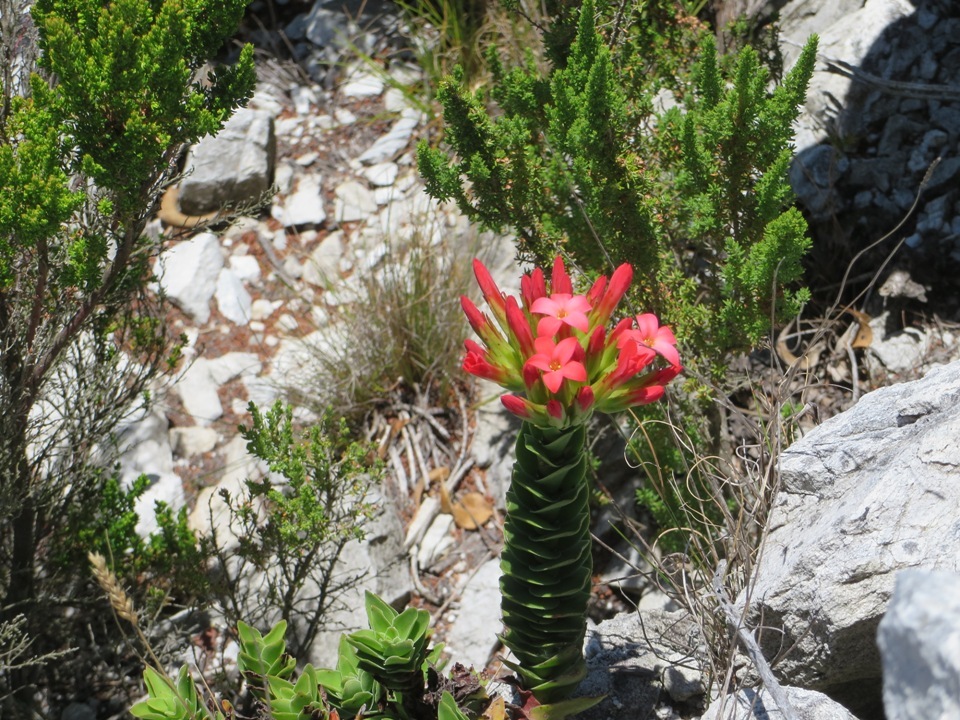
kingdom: Plantae
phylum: Tracheophyta
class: Magnoliopsida
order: Saxifragales
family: Crassulaceae
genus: Crassula
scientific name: Crassula coccinea
